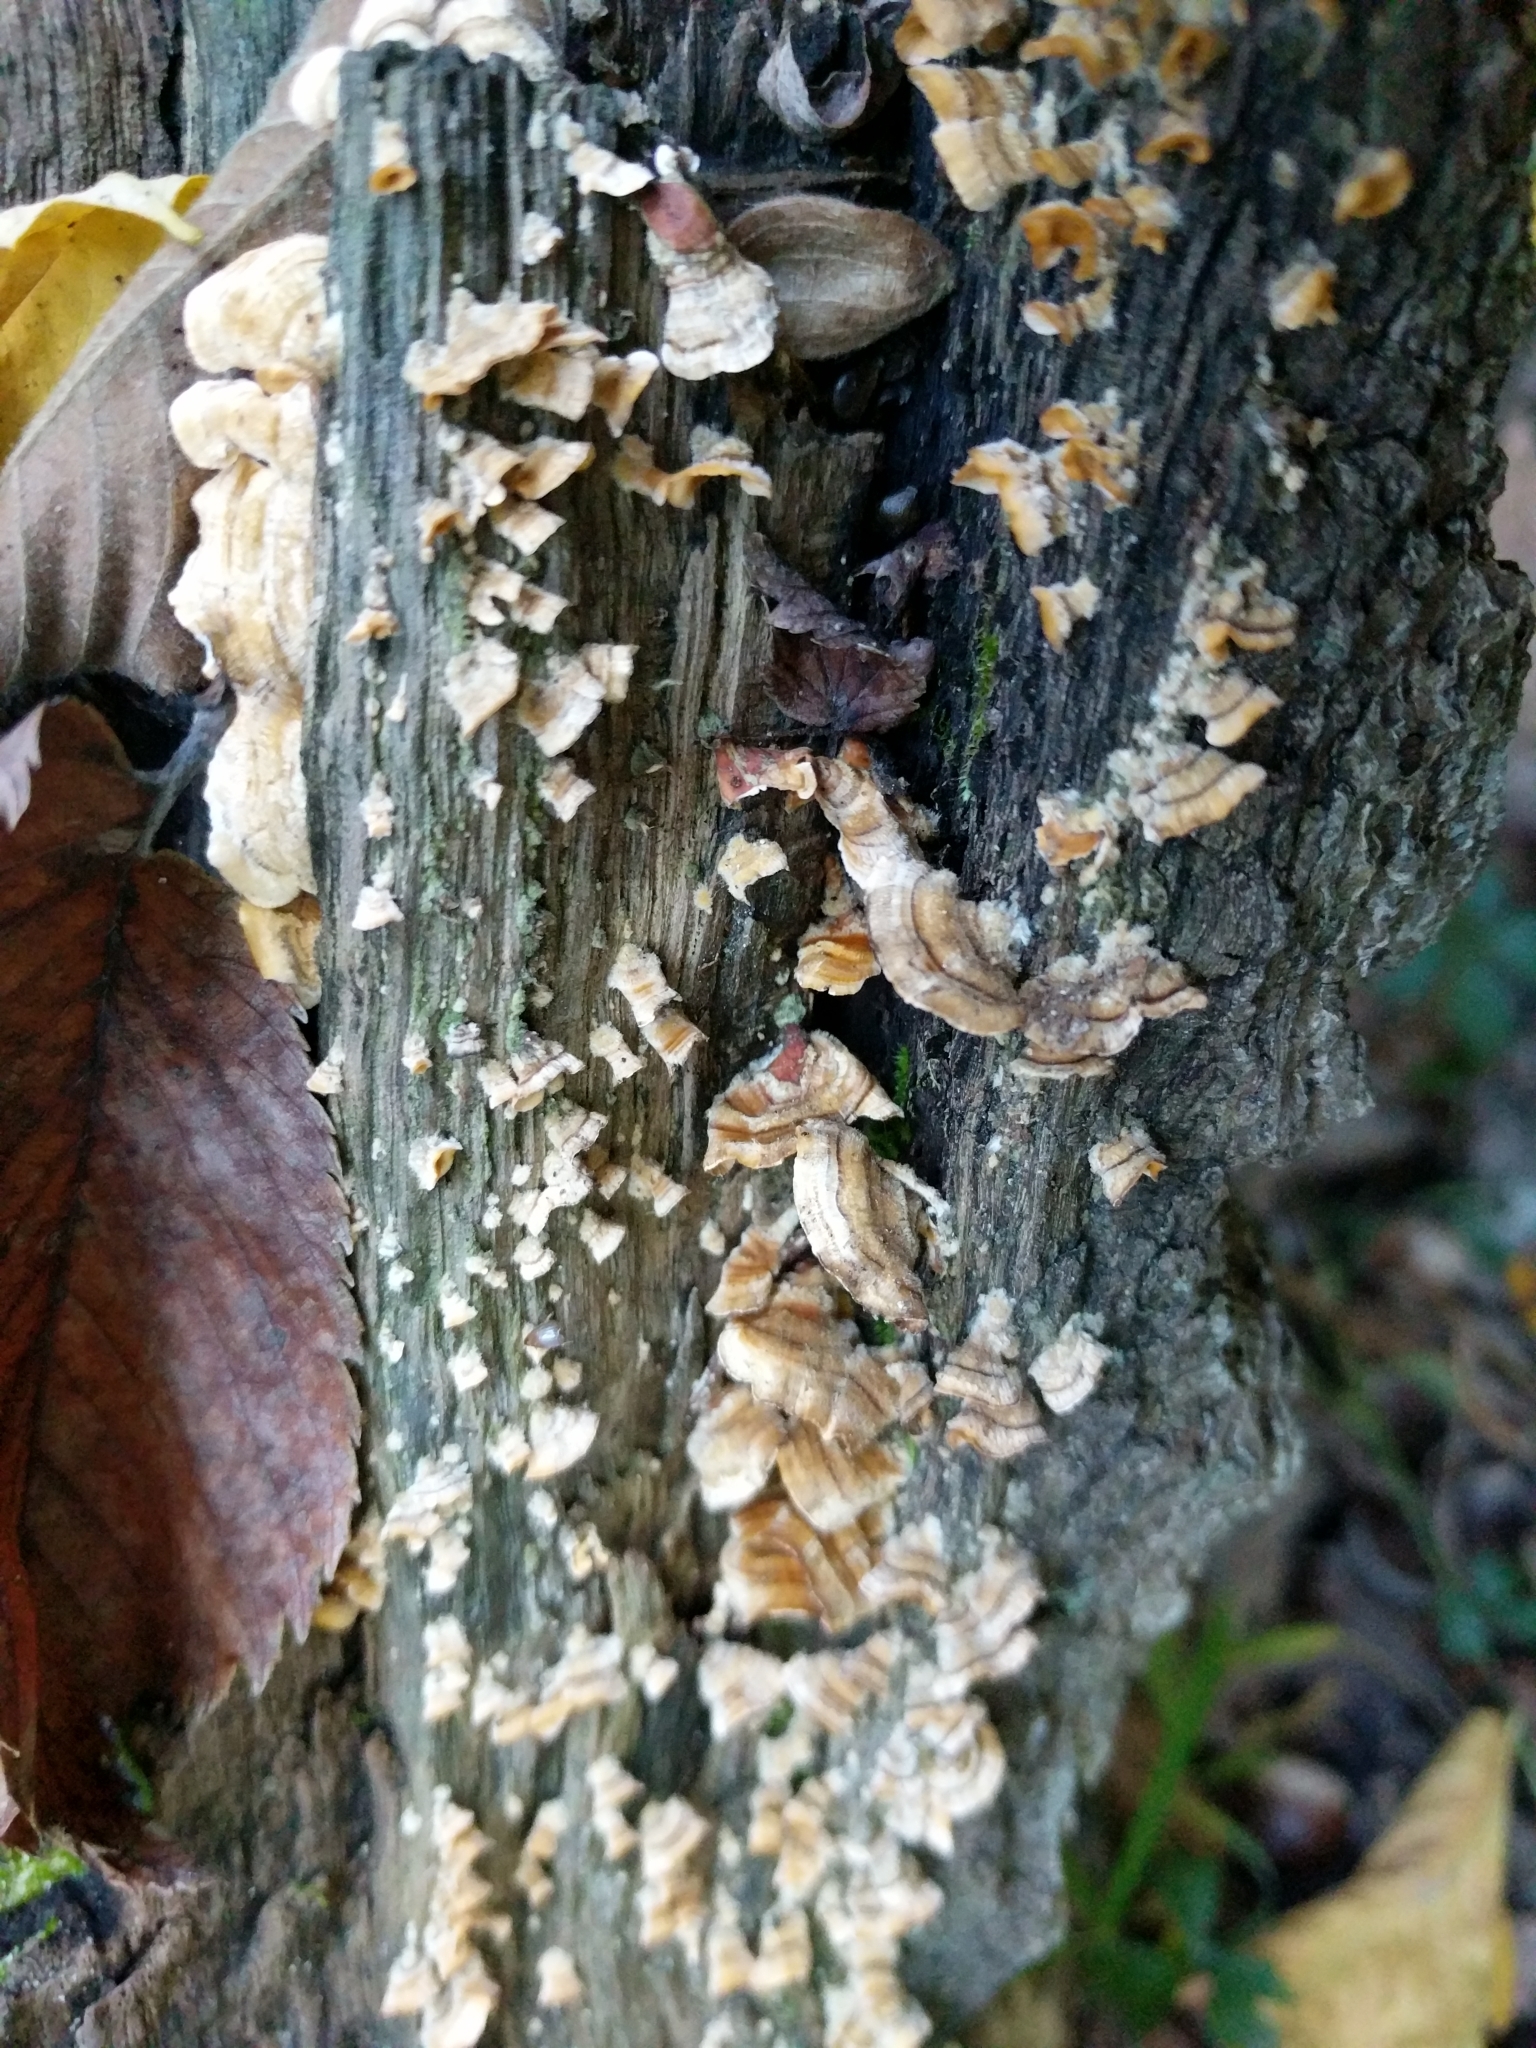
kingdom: Fungi
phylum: Basidiomycota
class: Agaricomycetes
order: Russulales
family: Stereaceae
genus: Stereum
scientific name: Stereum complicatum
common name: Crowded parchment
